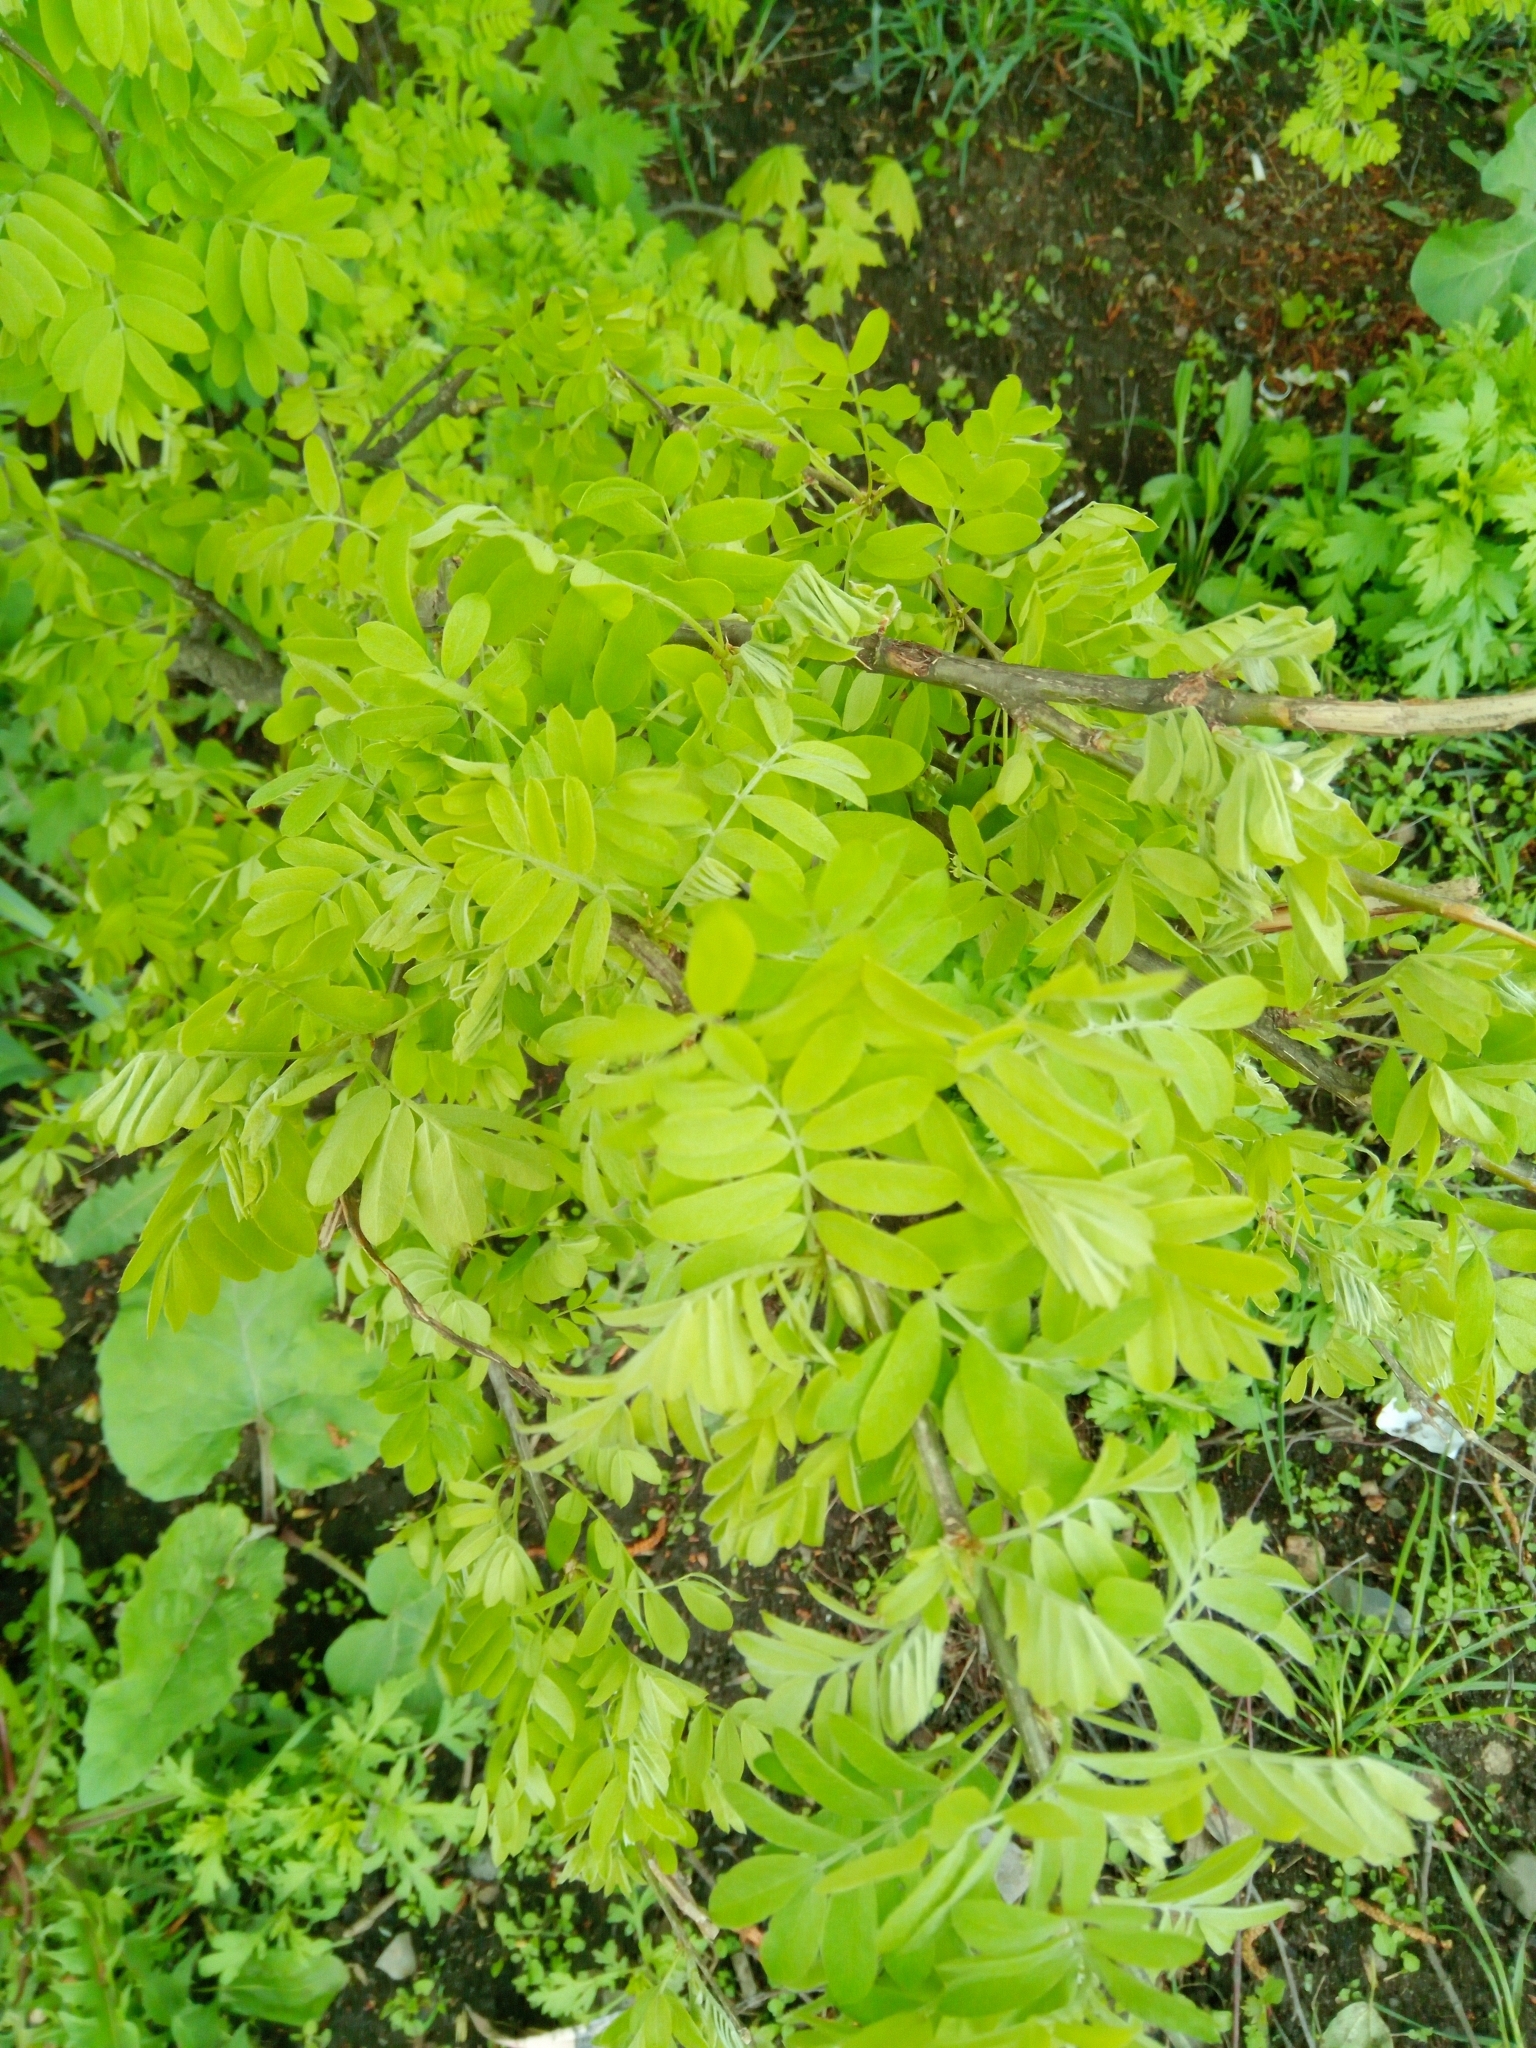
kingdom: Plantae
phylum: Tracheophyta
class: Magnoliopsida
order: Fabales
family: Fabaceae
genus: Caragana
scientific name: Caragana arborescens
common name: Siberian peashrub
